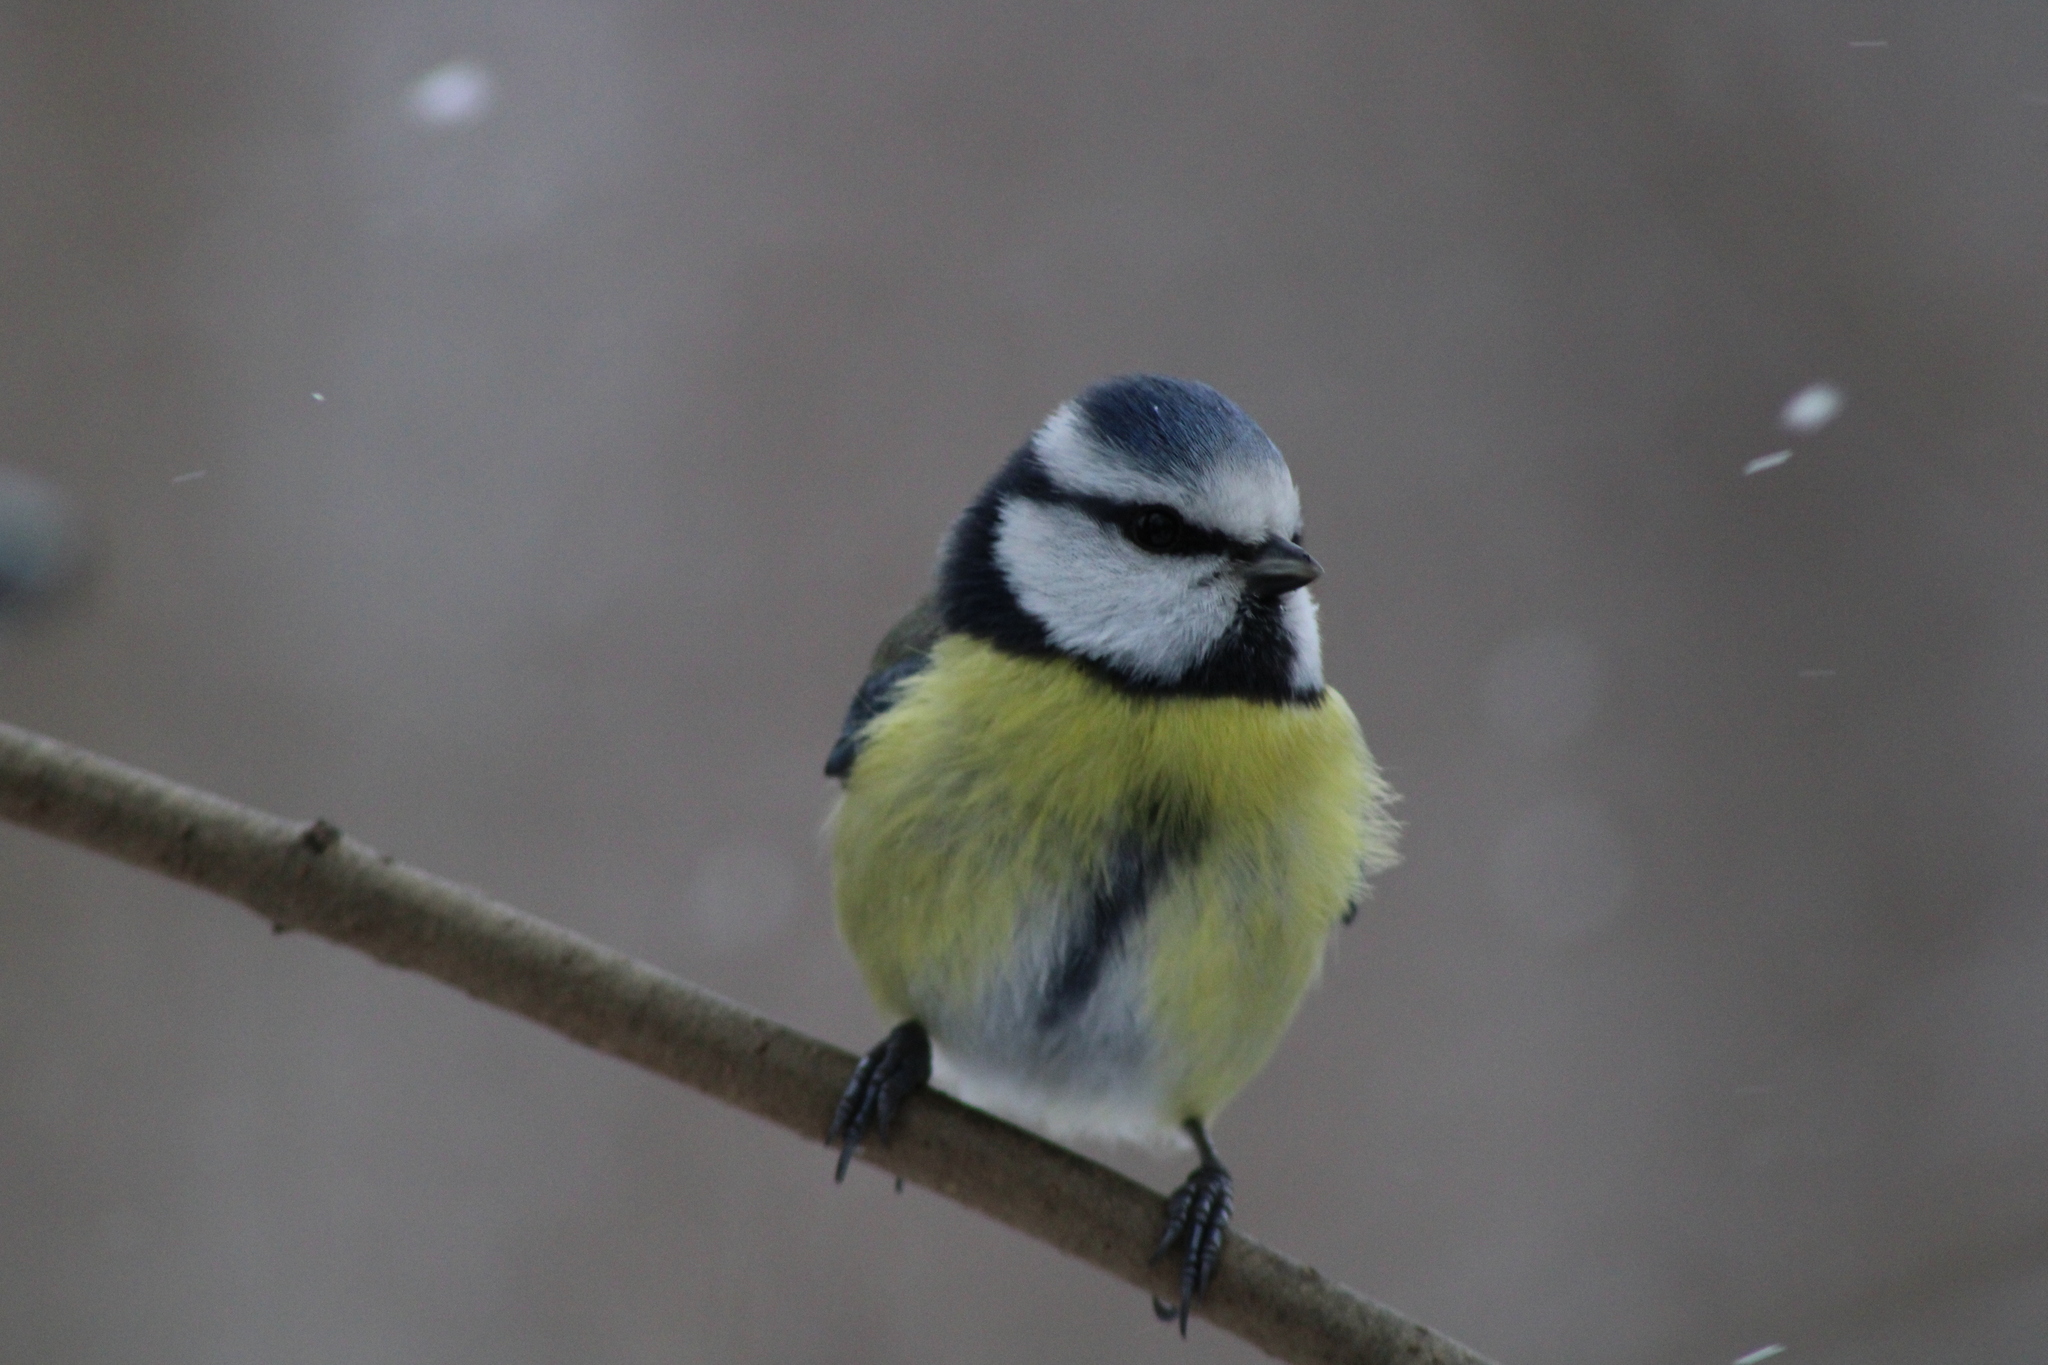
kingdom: Animalia
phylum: Chordata
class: Aves
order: Passeriformes
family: Paridae
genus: Cyanistes
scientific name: Cyanistes caeruleus
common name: Eurasian blue tit
